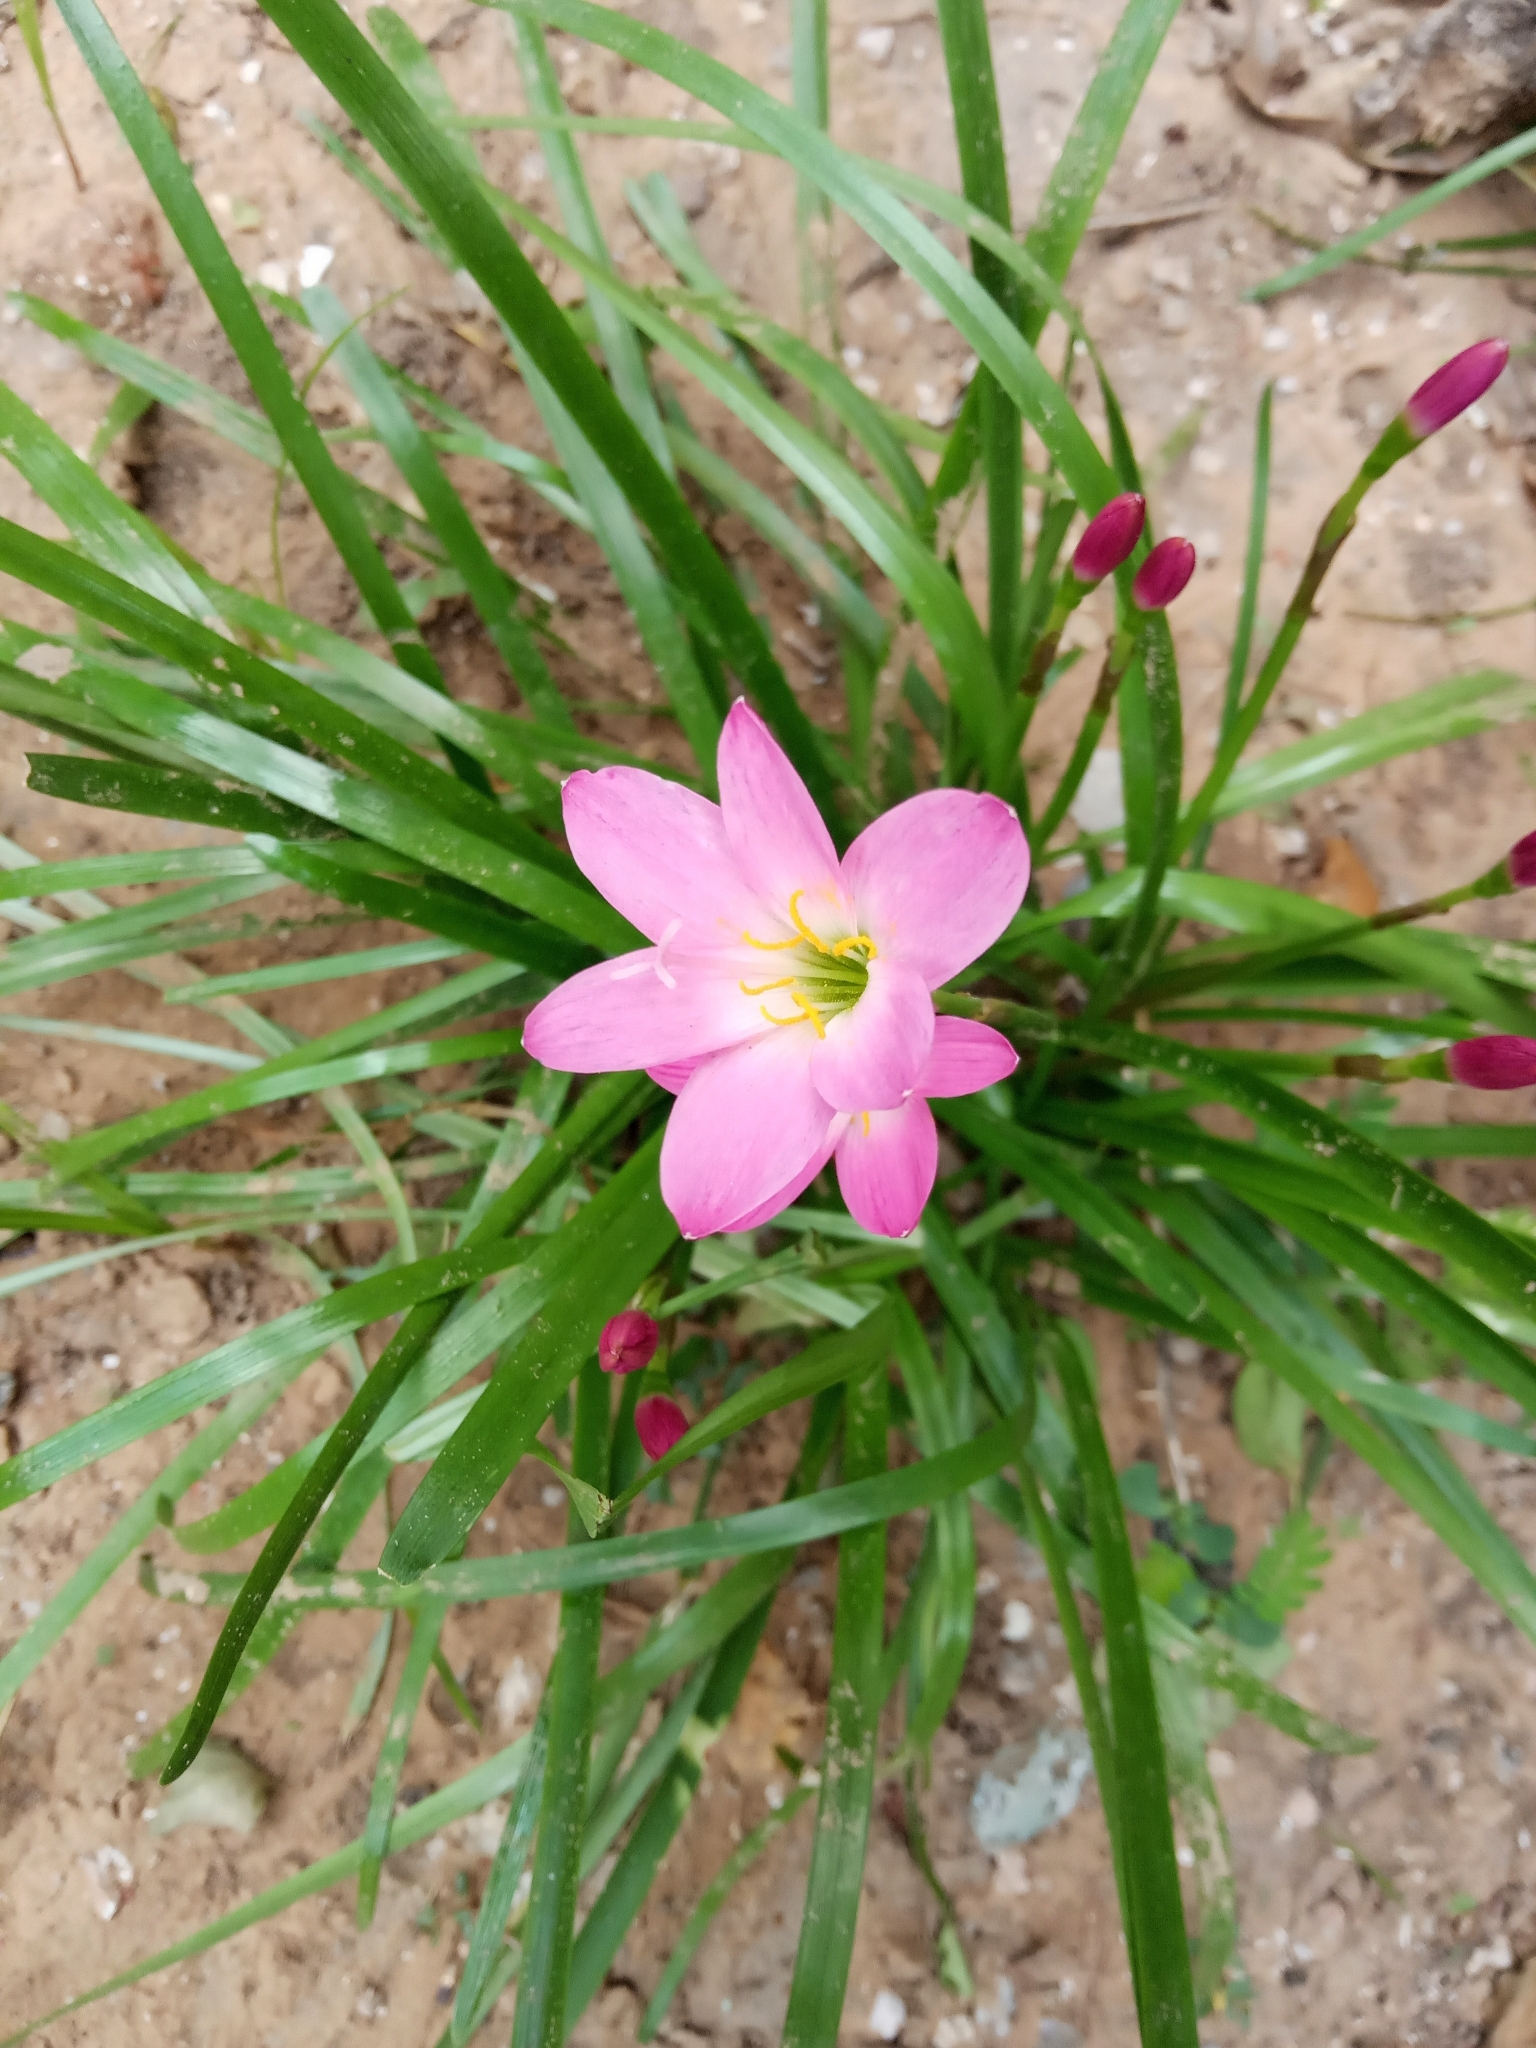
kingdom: Plantae
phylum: Tracheophyta
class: Liliopsida
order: Asparagales
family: Amaryllidaceae
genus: Zephyranthes
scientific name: Zephyranthes carinata
